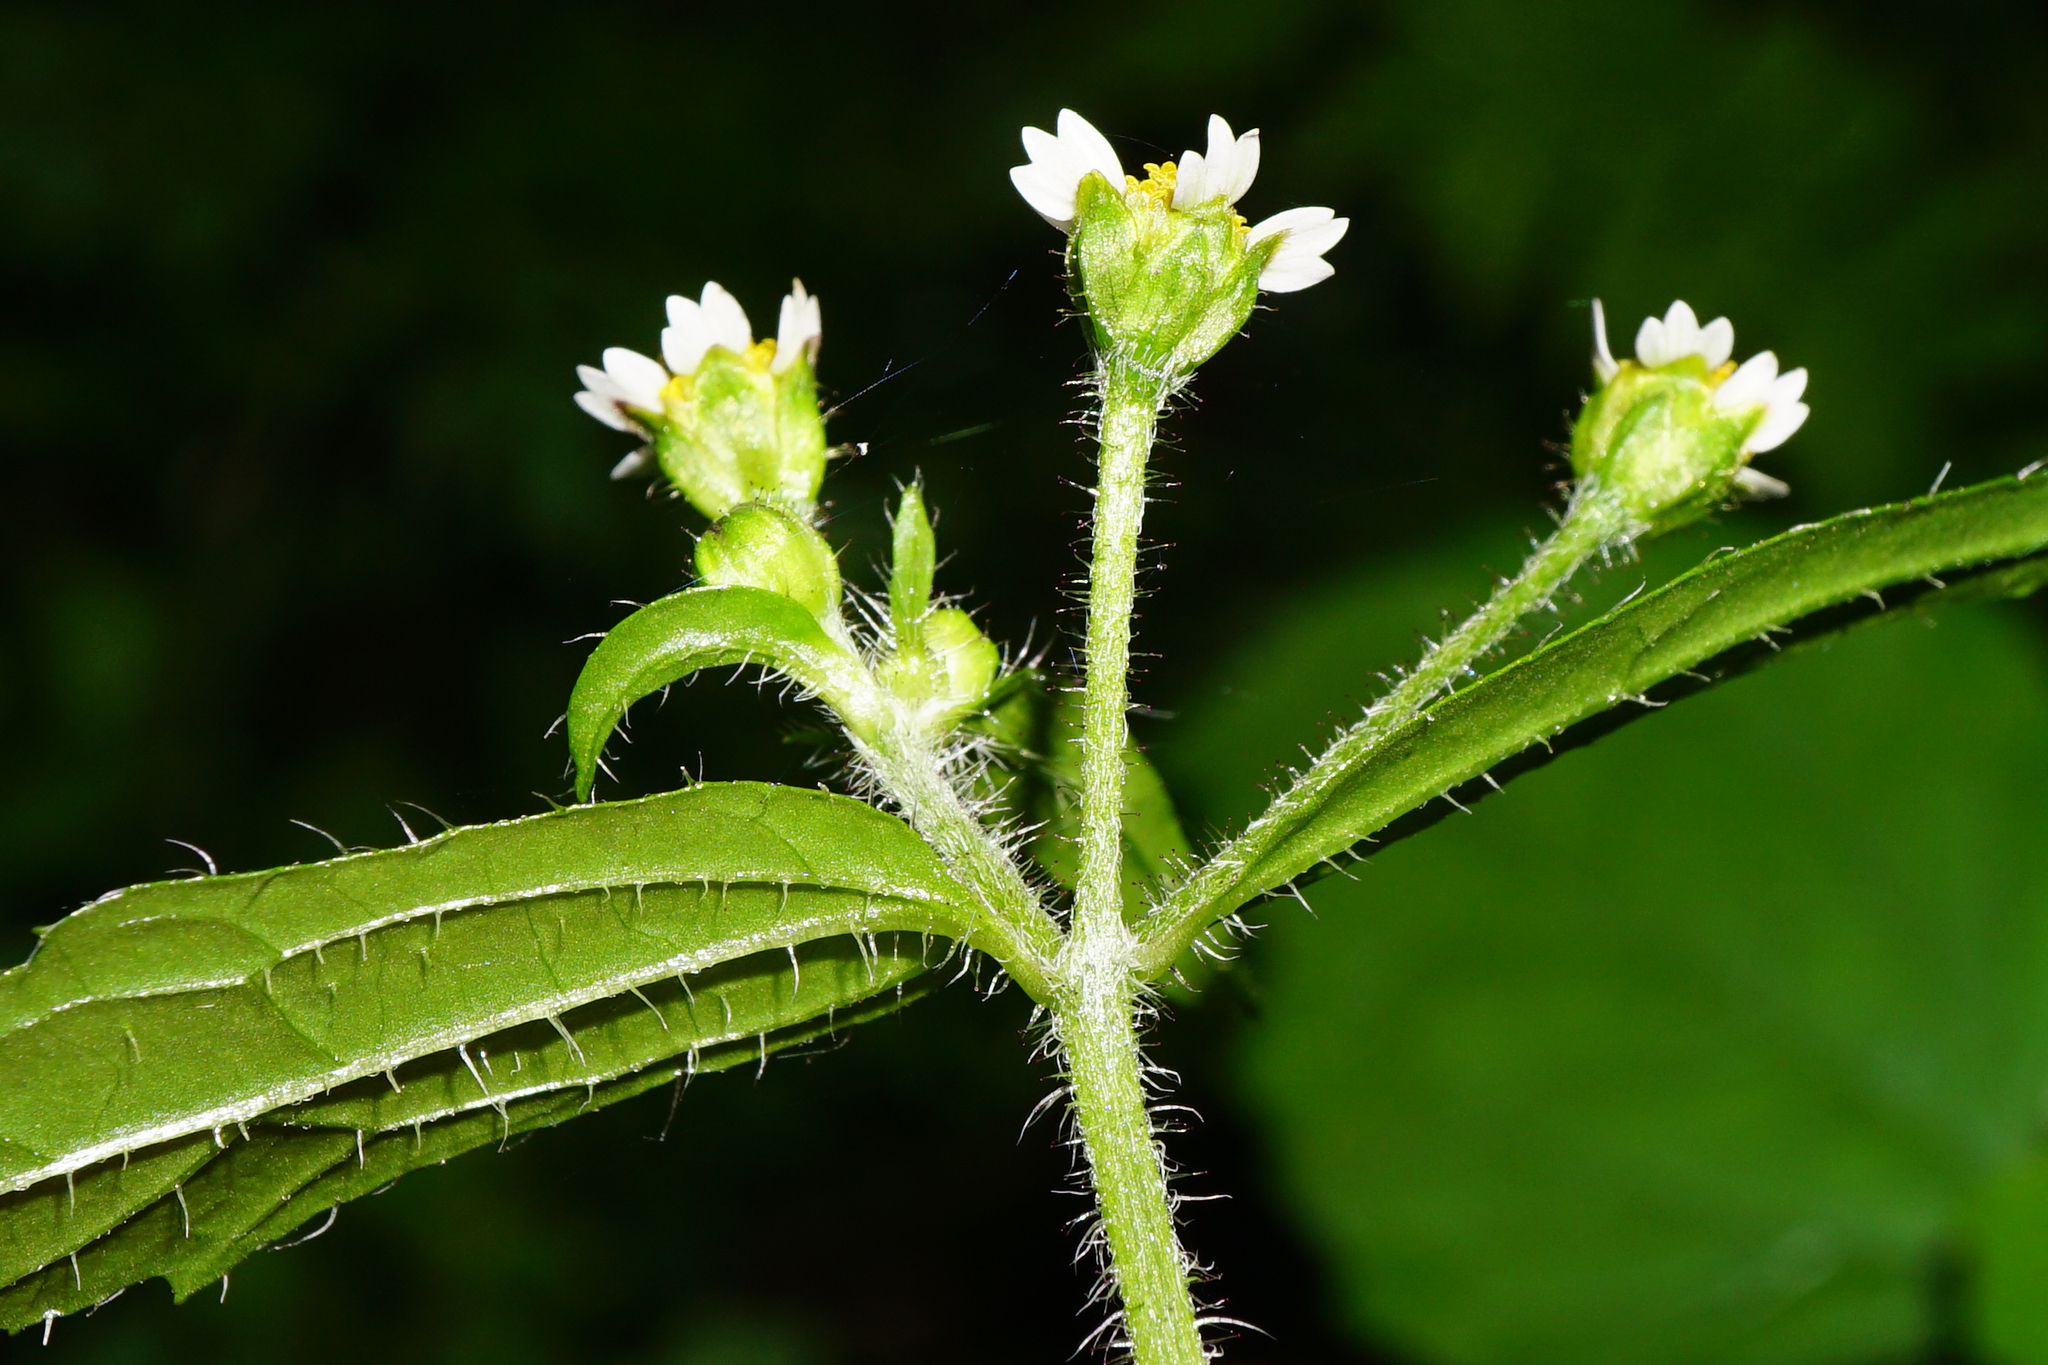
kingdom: Plantae
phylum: Tracheophyta
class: Magnoliopsida
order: Asterales
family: Asteraceae
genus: Galinsoga
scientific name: Galinsoga quadriradiata
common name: Shaggy soldier
